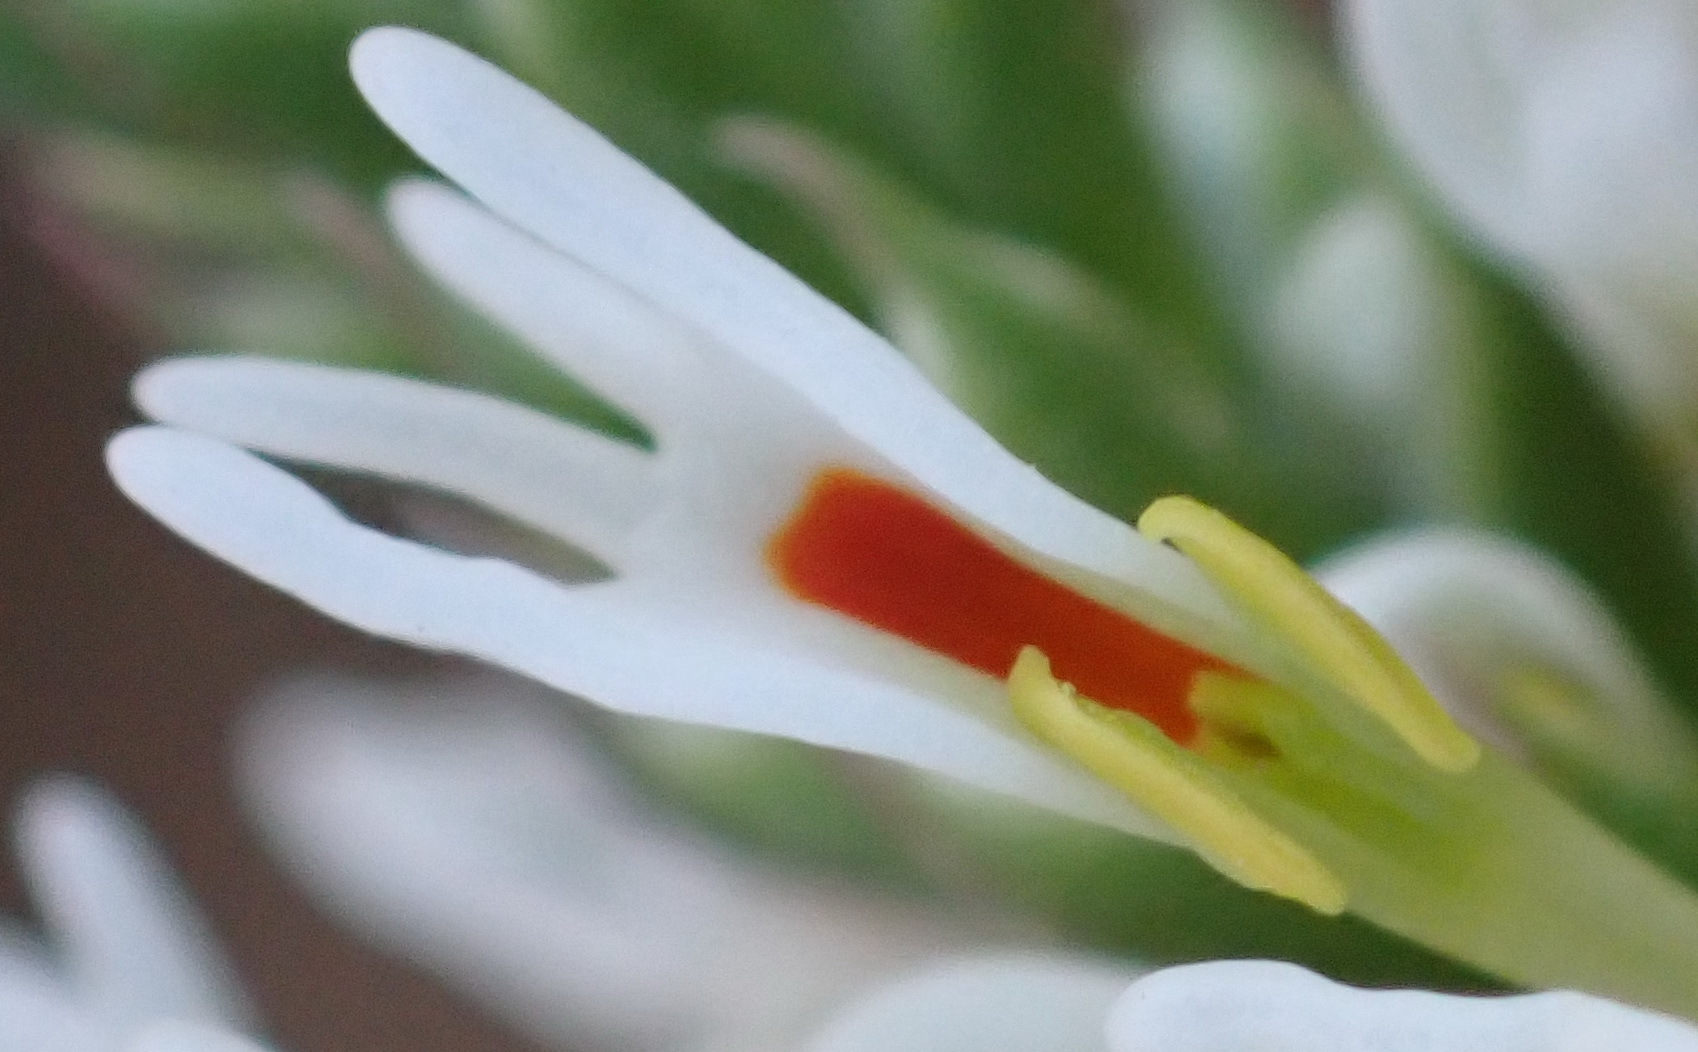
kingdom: Plantae
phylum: Tracheophyta
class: Magnoliopsida
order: Lamiales
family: Scrophulariaceae
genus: Hebenstretia
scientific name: Hebenstretia integrifolia
